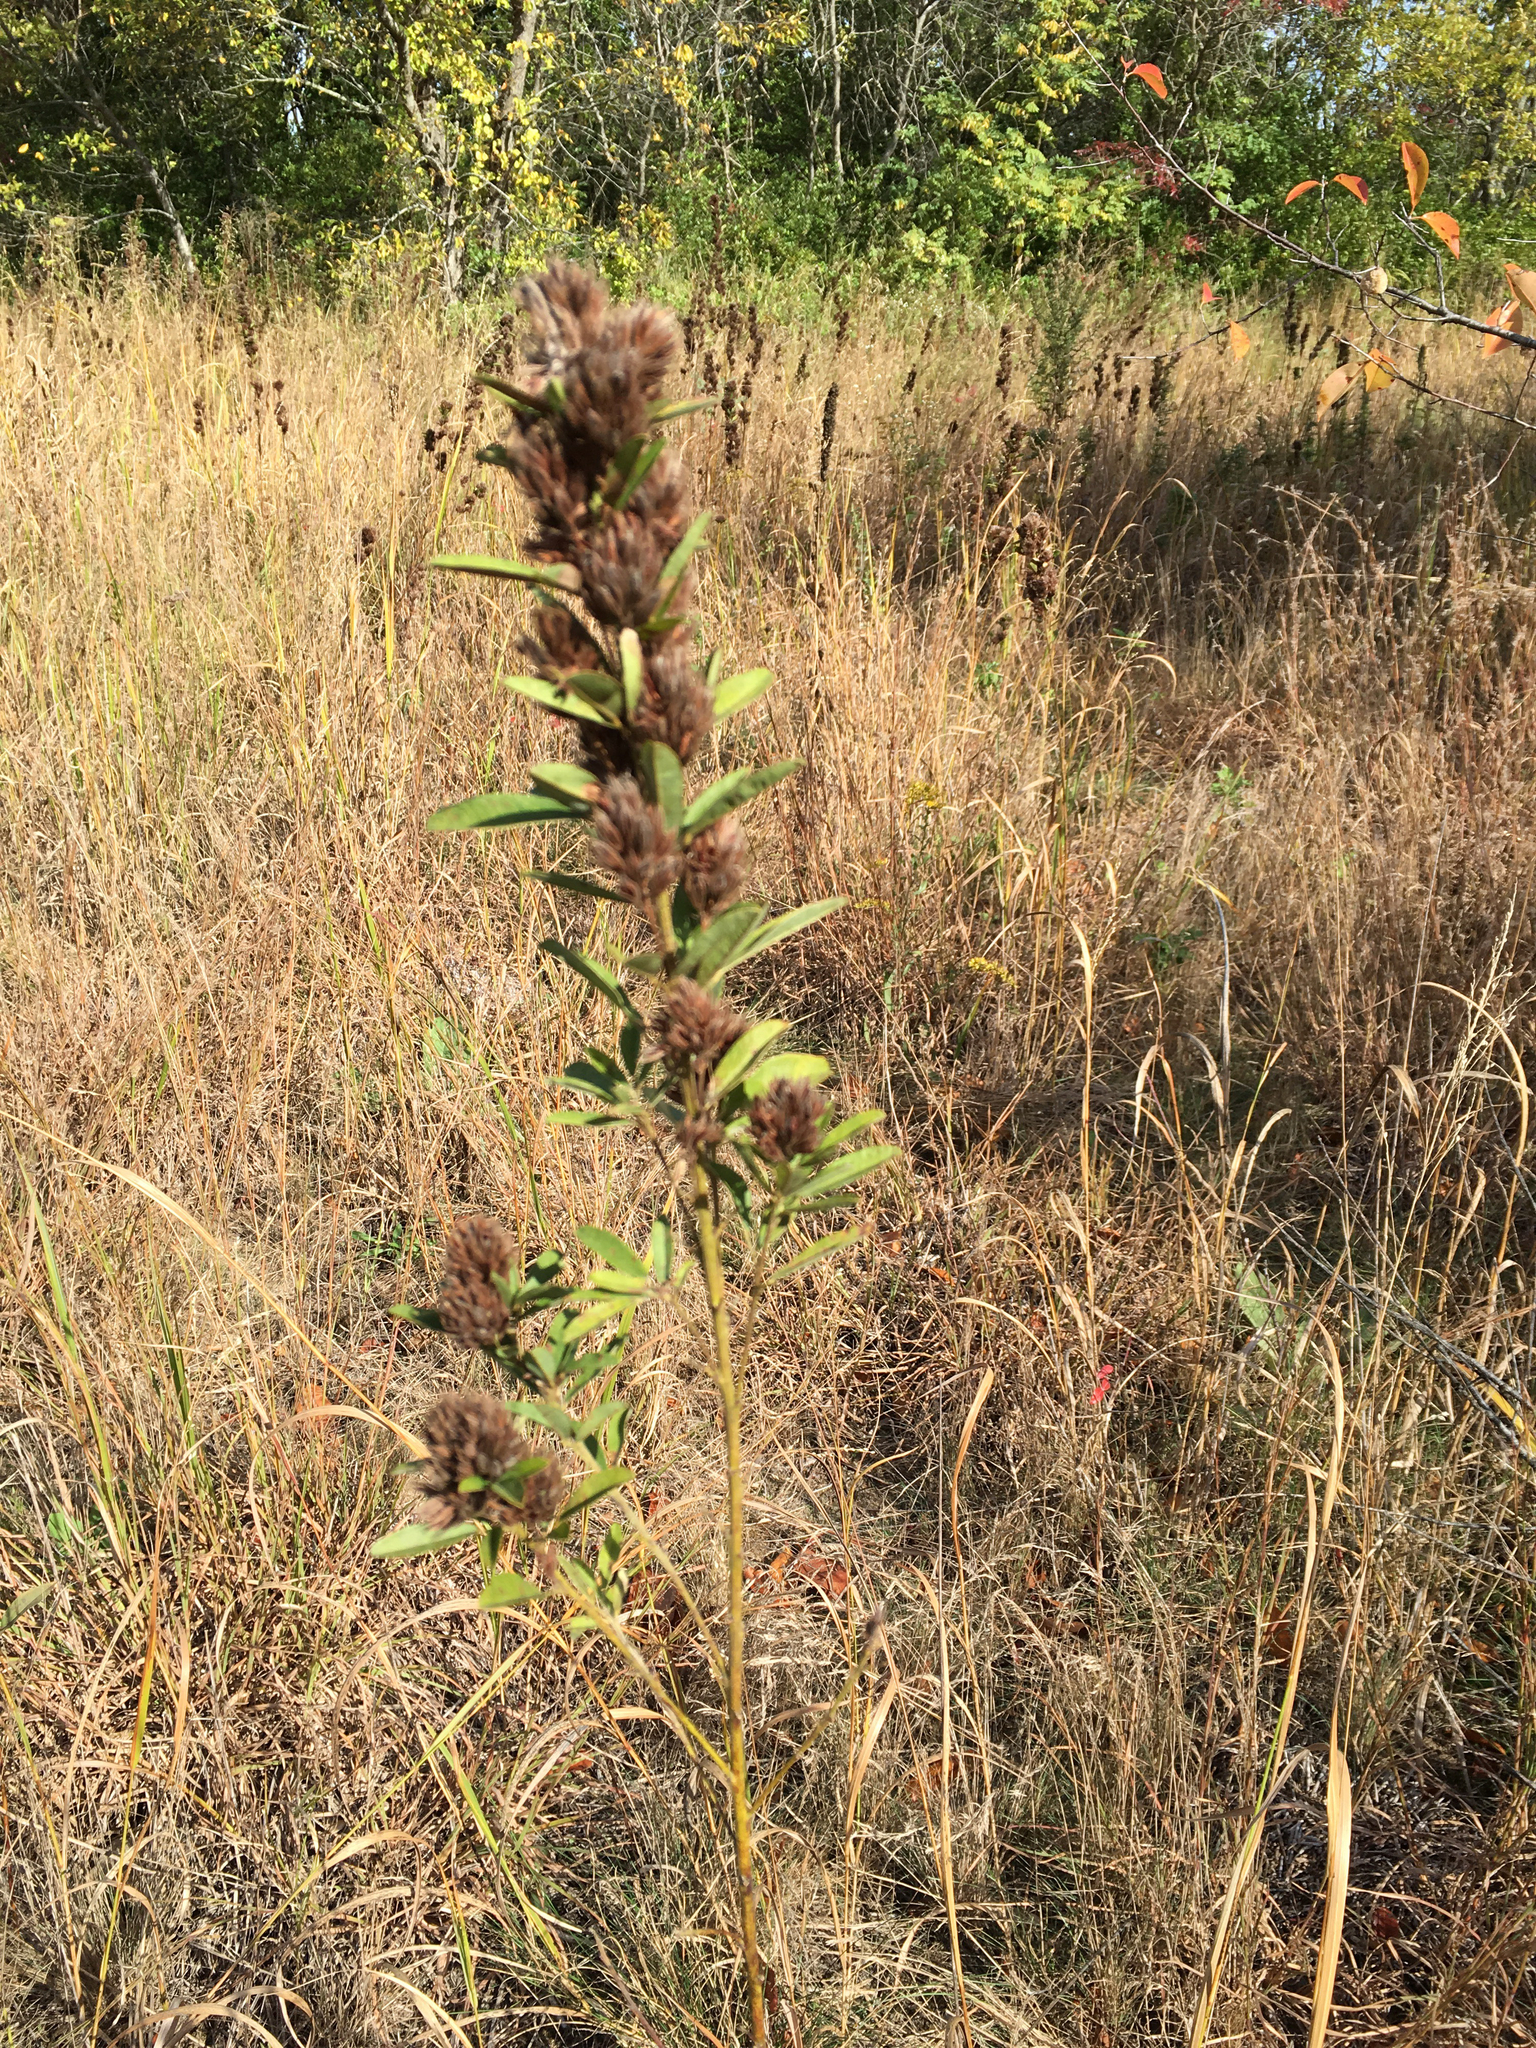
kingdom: Plantae
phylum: Tracheophyta
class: Magnoliopsida
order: Fabales
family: Fabaceae
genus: Lespedeza
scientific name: Lespedeza capitata
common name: Dusty clover
